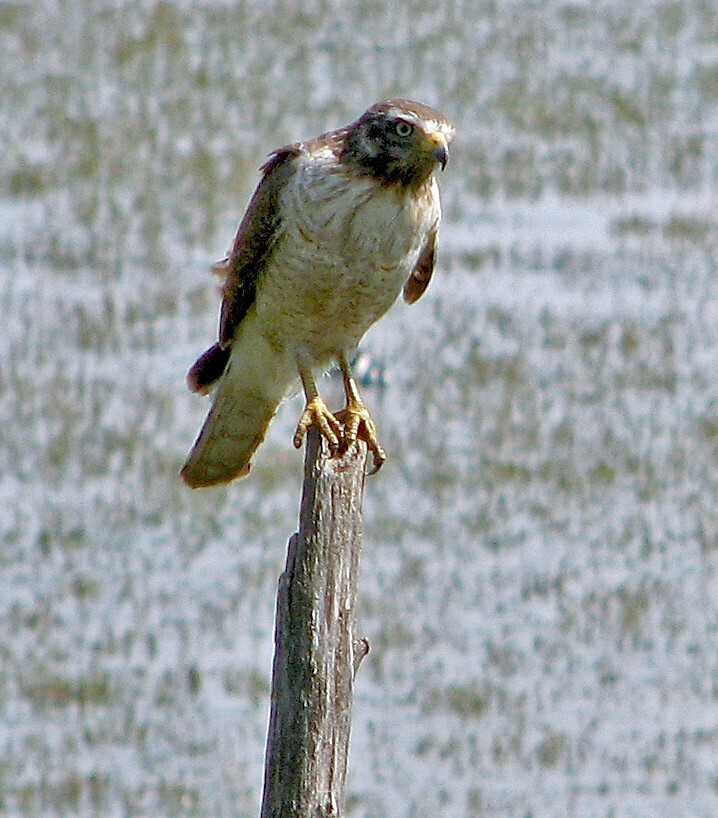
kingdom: Animalia
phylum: Chordata
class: Aves
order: Accipitriformes
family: Accipitridae
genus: Rupornis
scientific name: Rupornis magnirostris
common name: Roadside hawk
